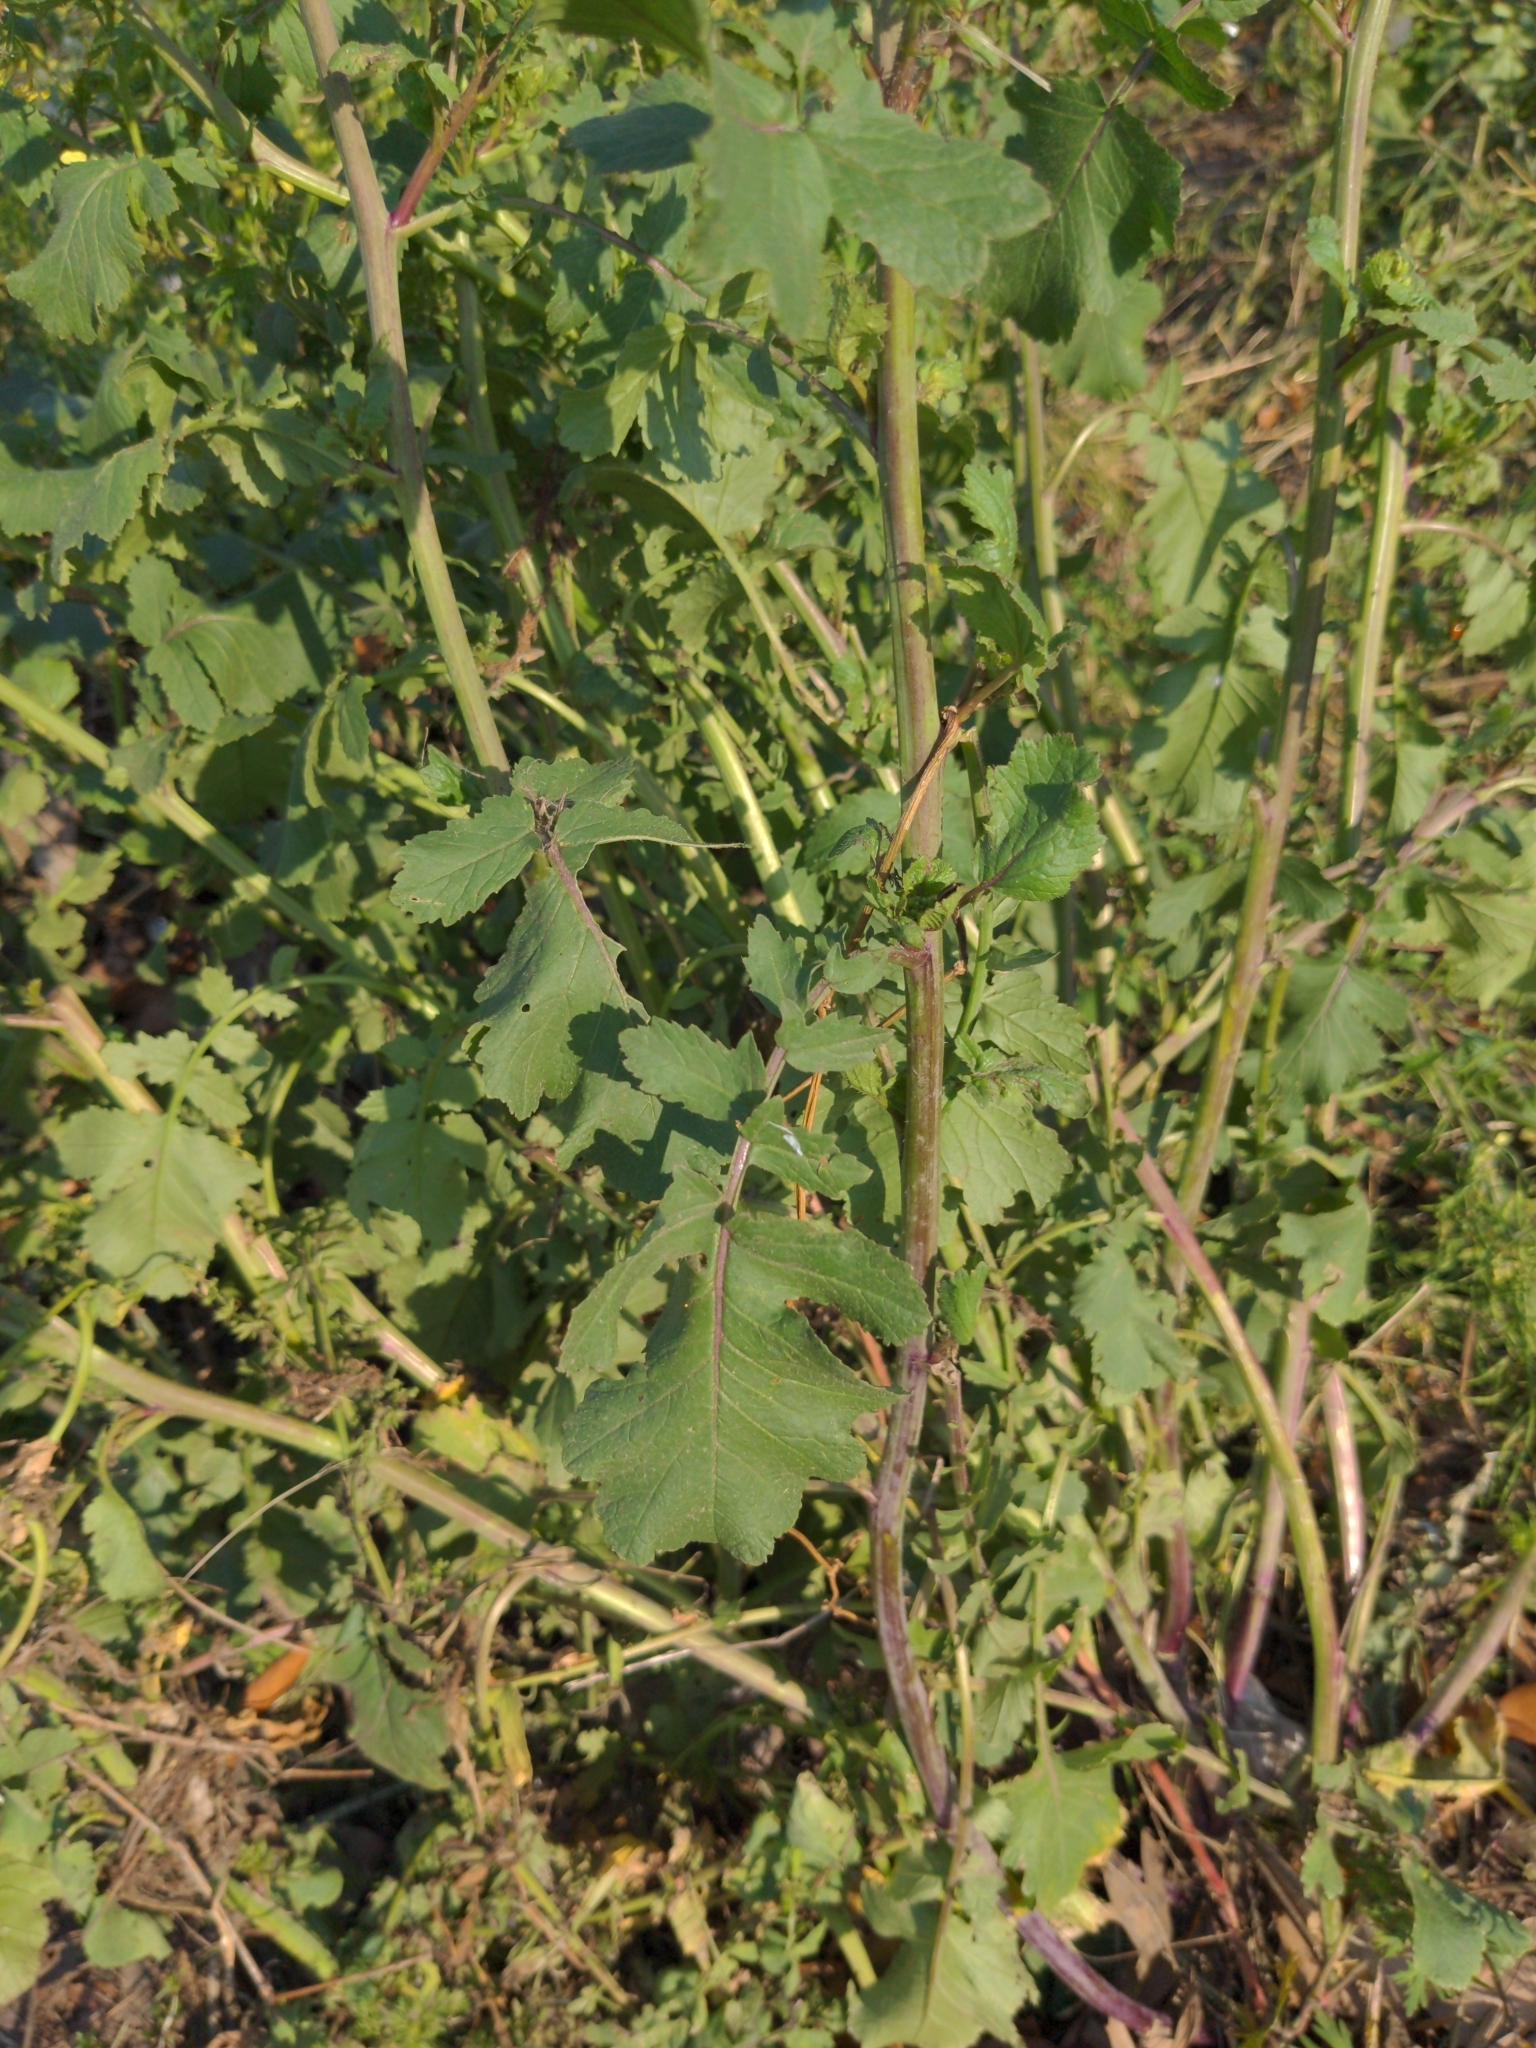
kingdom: Plantae
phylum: Tracheophyta
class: Magnoliopsida
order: Brassicales
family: Brassicaceae
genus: Raphanus
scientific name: Raphanus raphanistrum
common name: Wild radish
